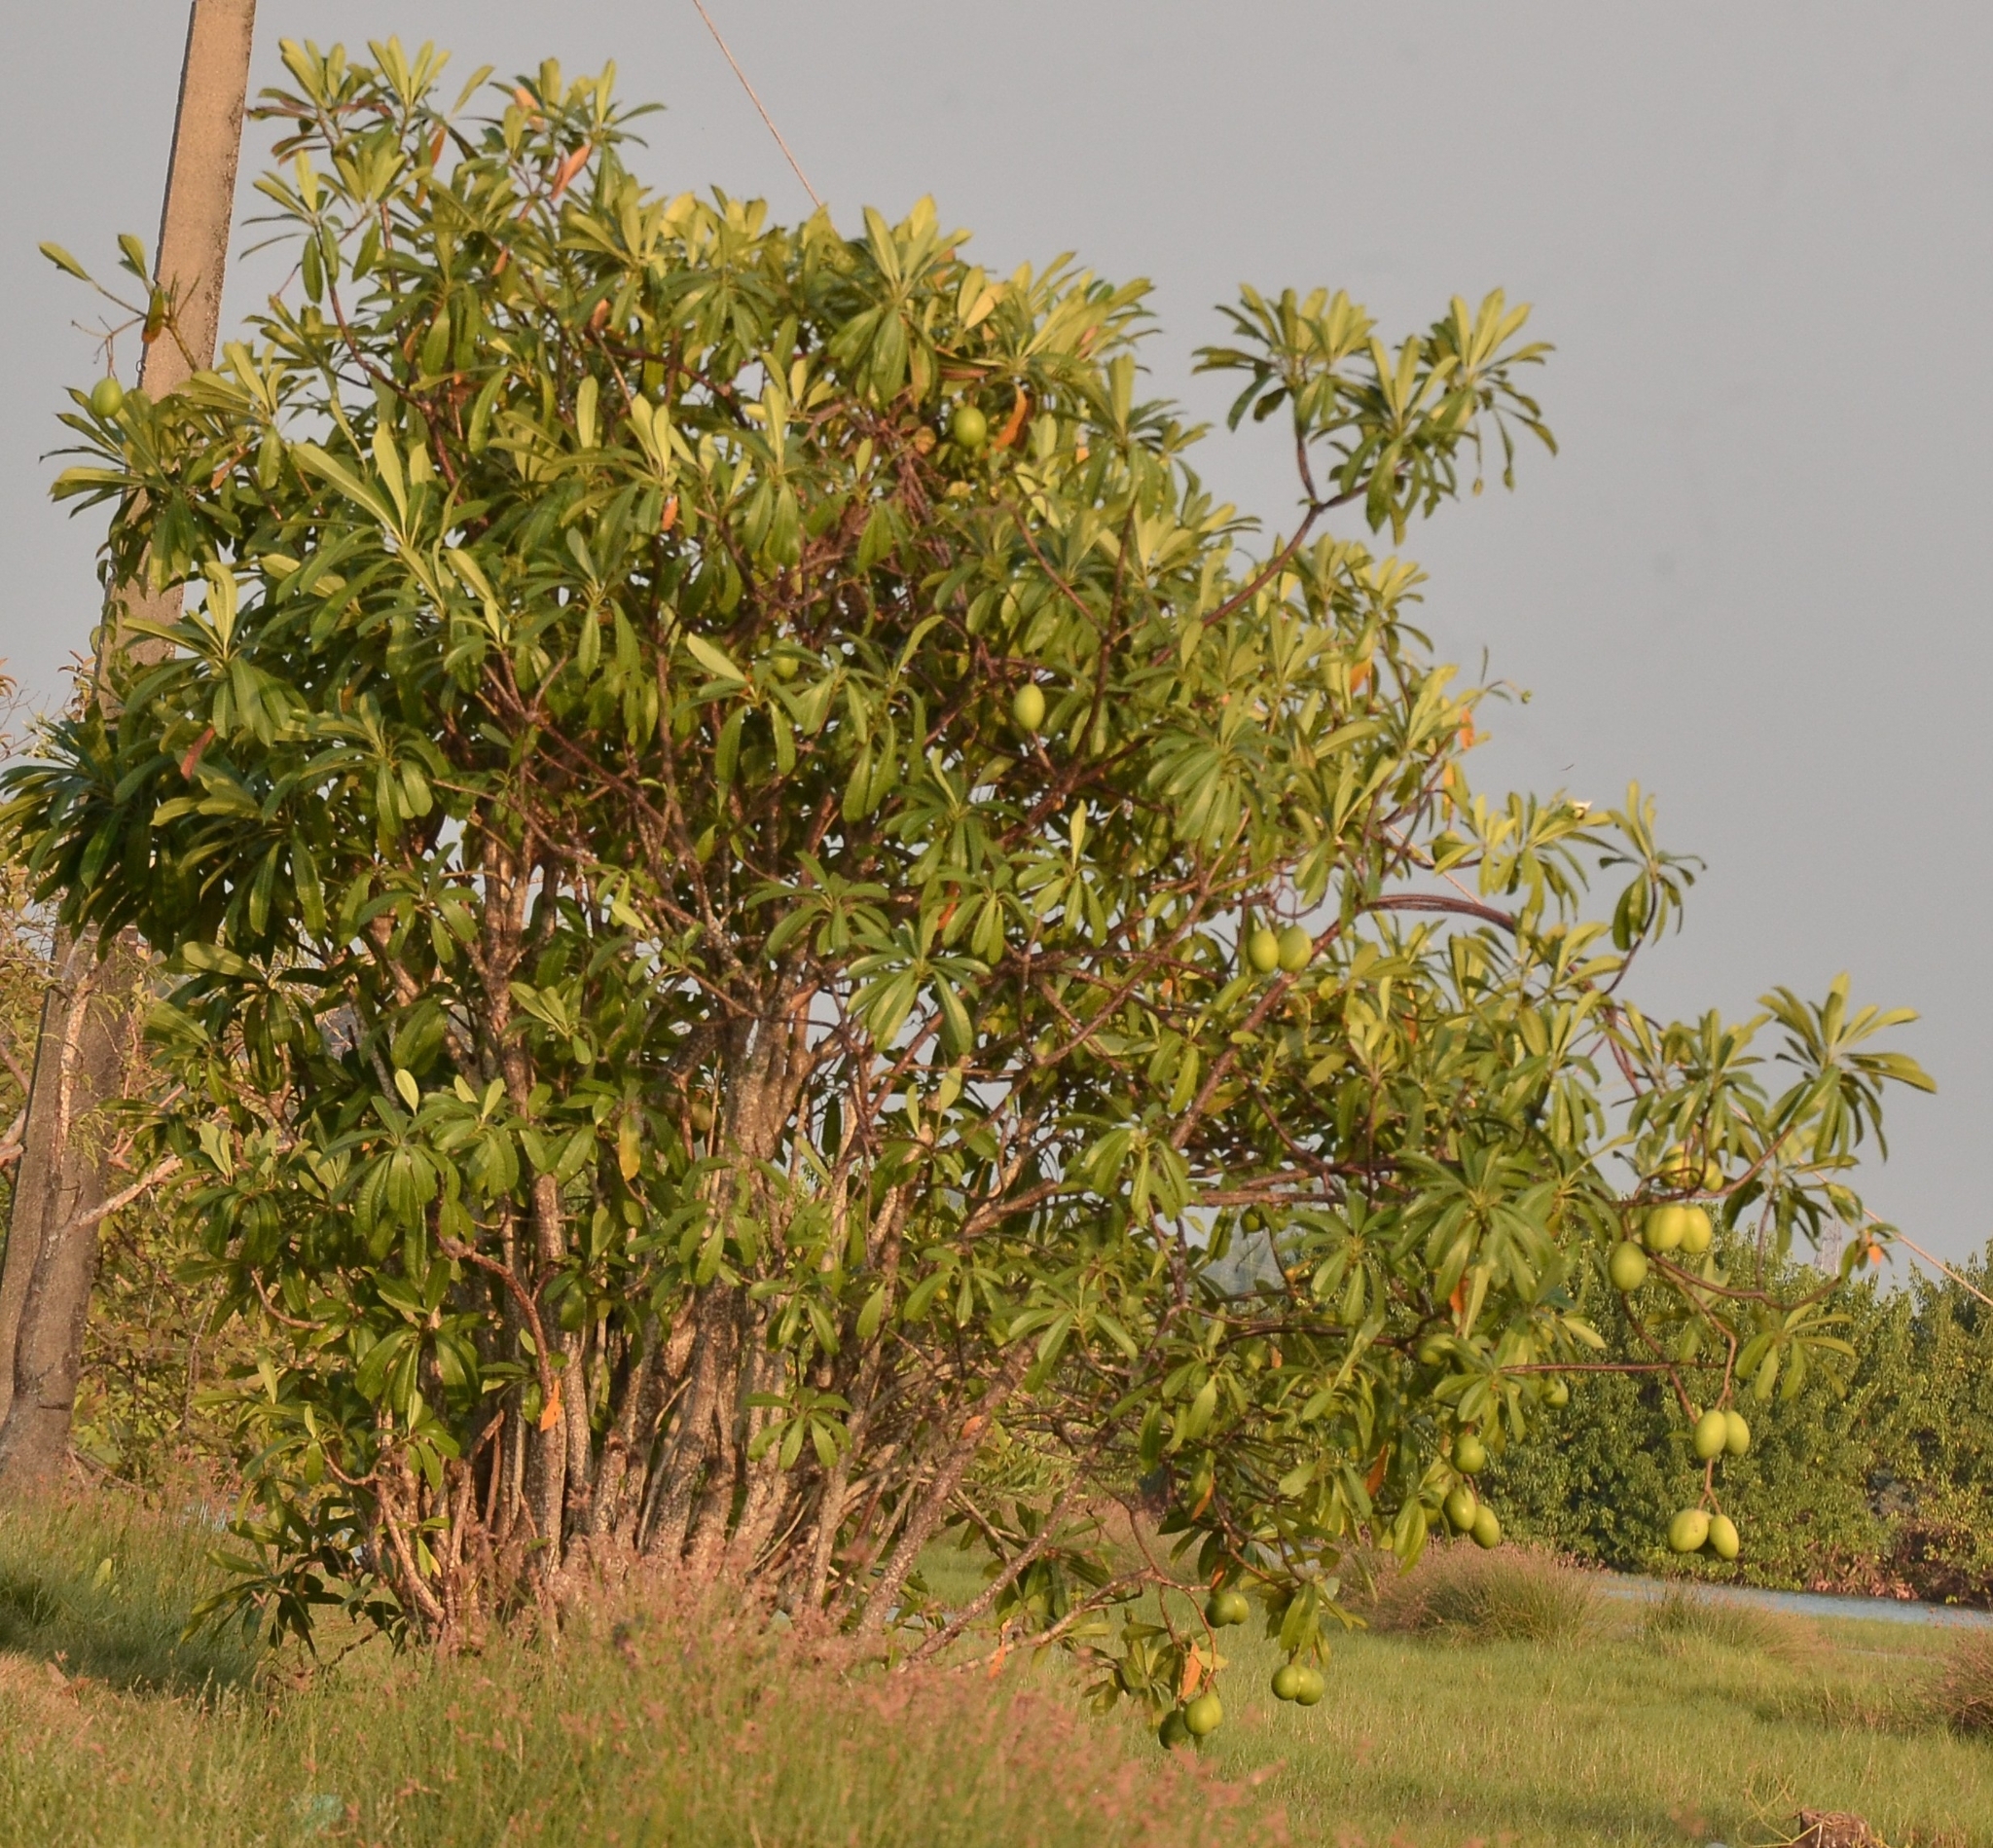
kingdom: Plantae
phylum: Tracheophyta
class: Magnoliopsida
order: Gentianales
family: Apocynaceae
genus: Cerbera
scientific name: Cerbera odollam
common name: Pong-pong
